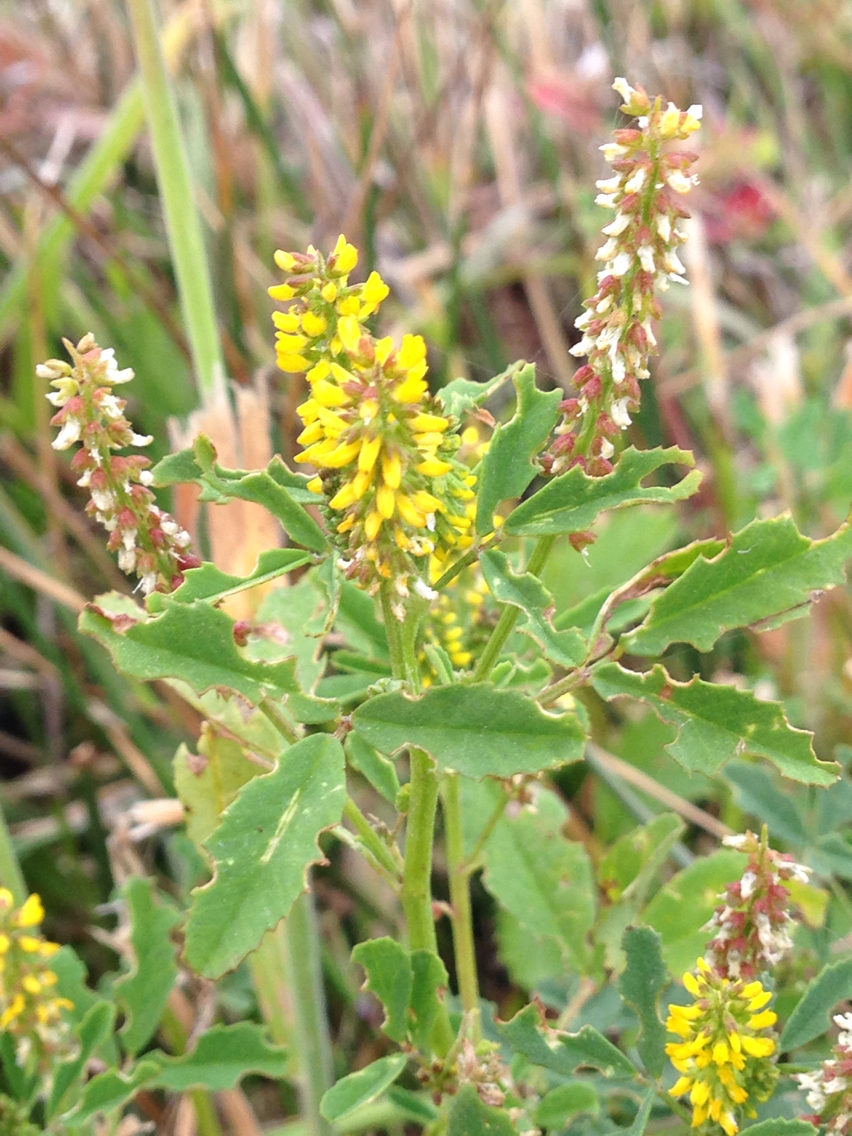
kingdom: Plantae
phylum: Tracheophyta
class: Magnoliopsida
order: Fabales
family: Fabaceae
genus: Melilotus
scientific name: Melilotus indicus
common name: Small melilot
